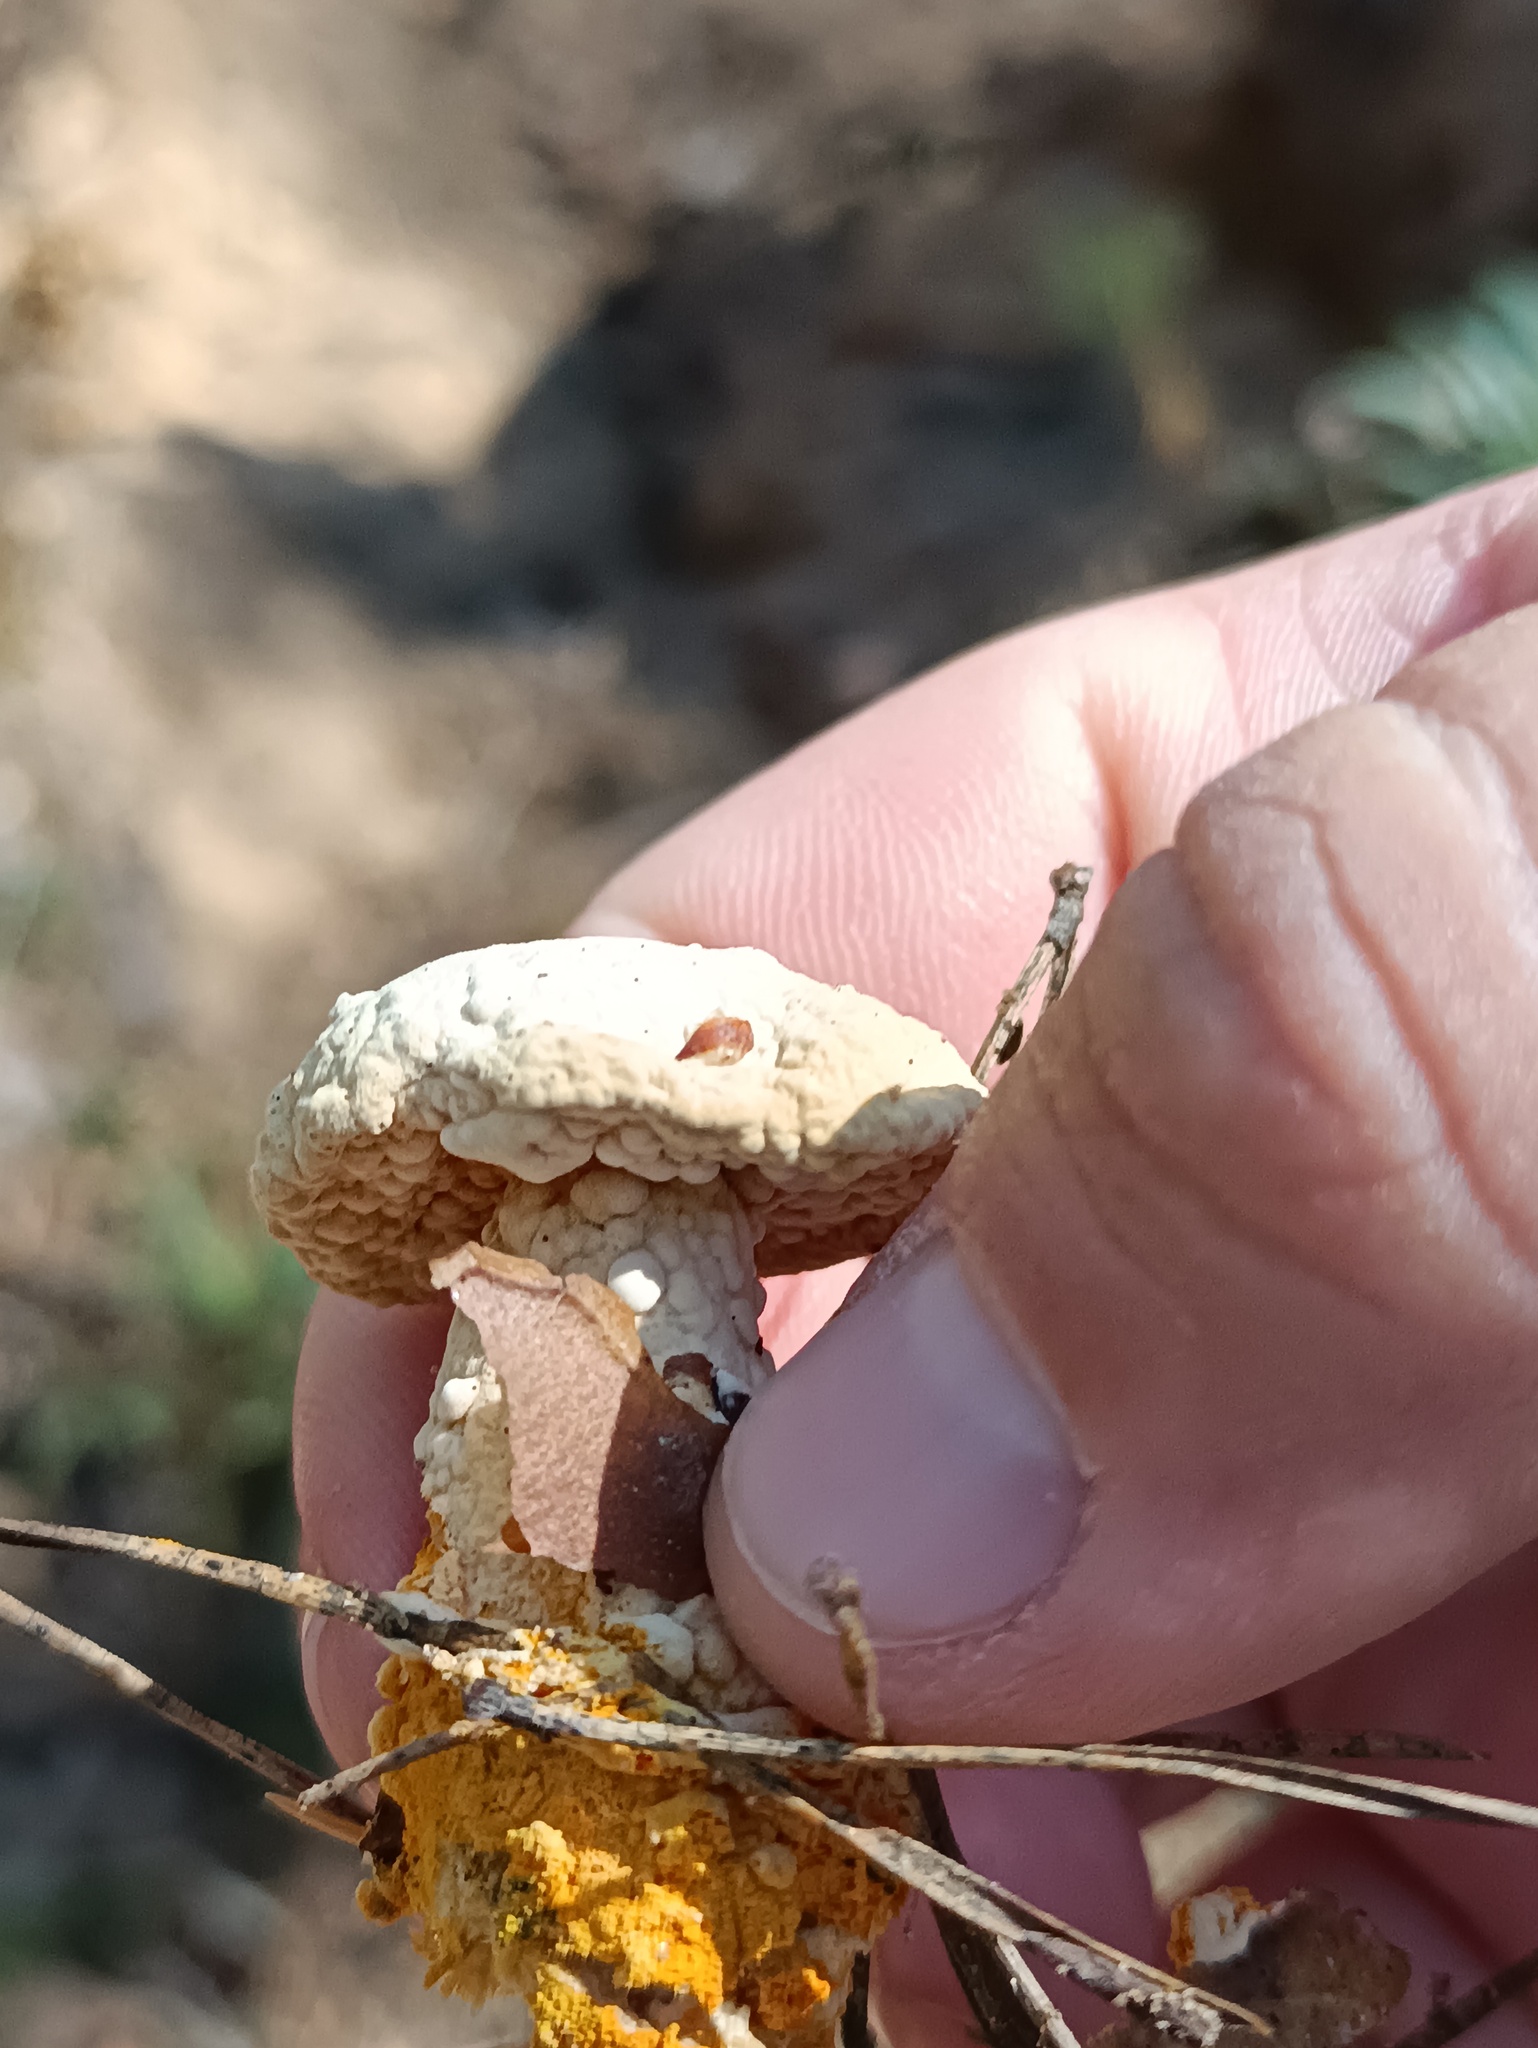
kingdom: Fungi
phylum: Ascomycota
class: Sordariomycetes
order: Hypocreales
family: Hypocreaceae
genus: Hypomyces
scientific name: Hypomyces chrysospermus
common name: Bolete mould
